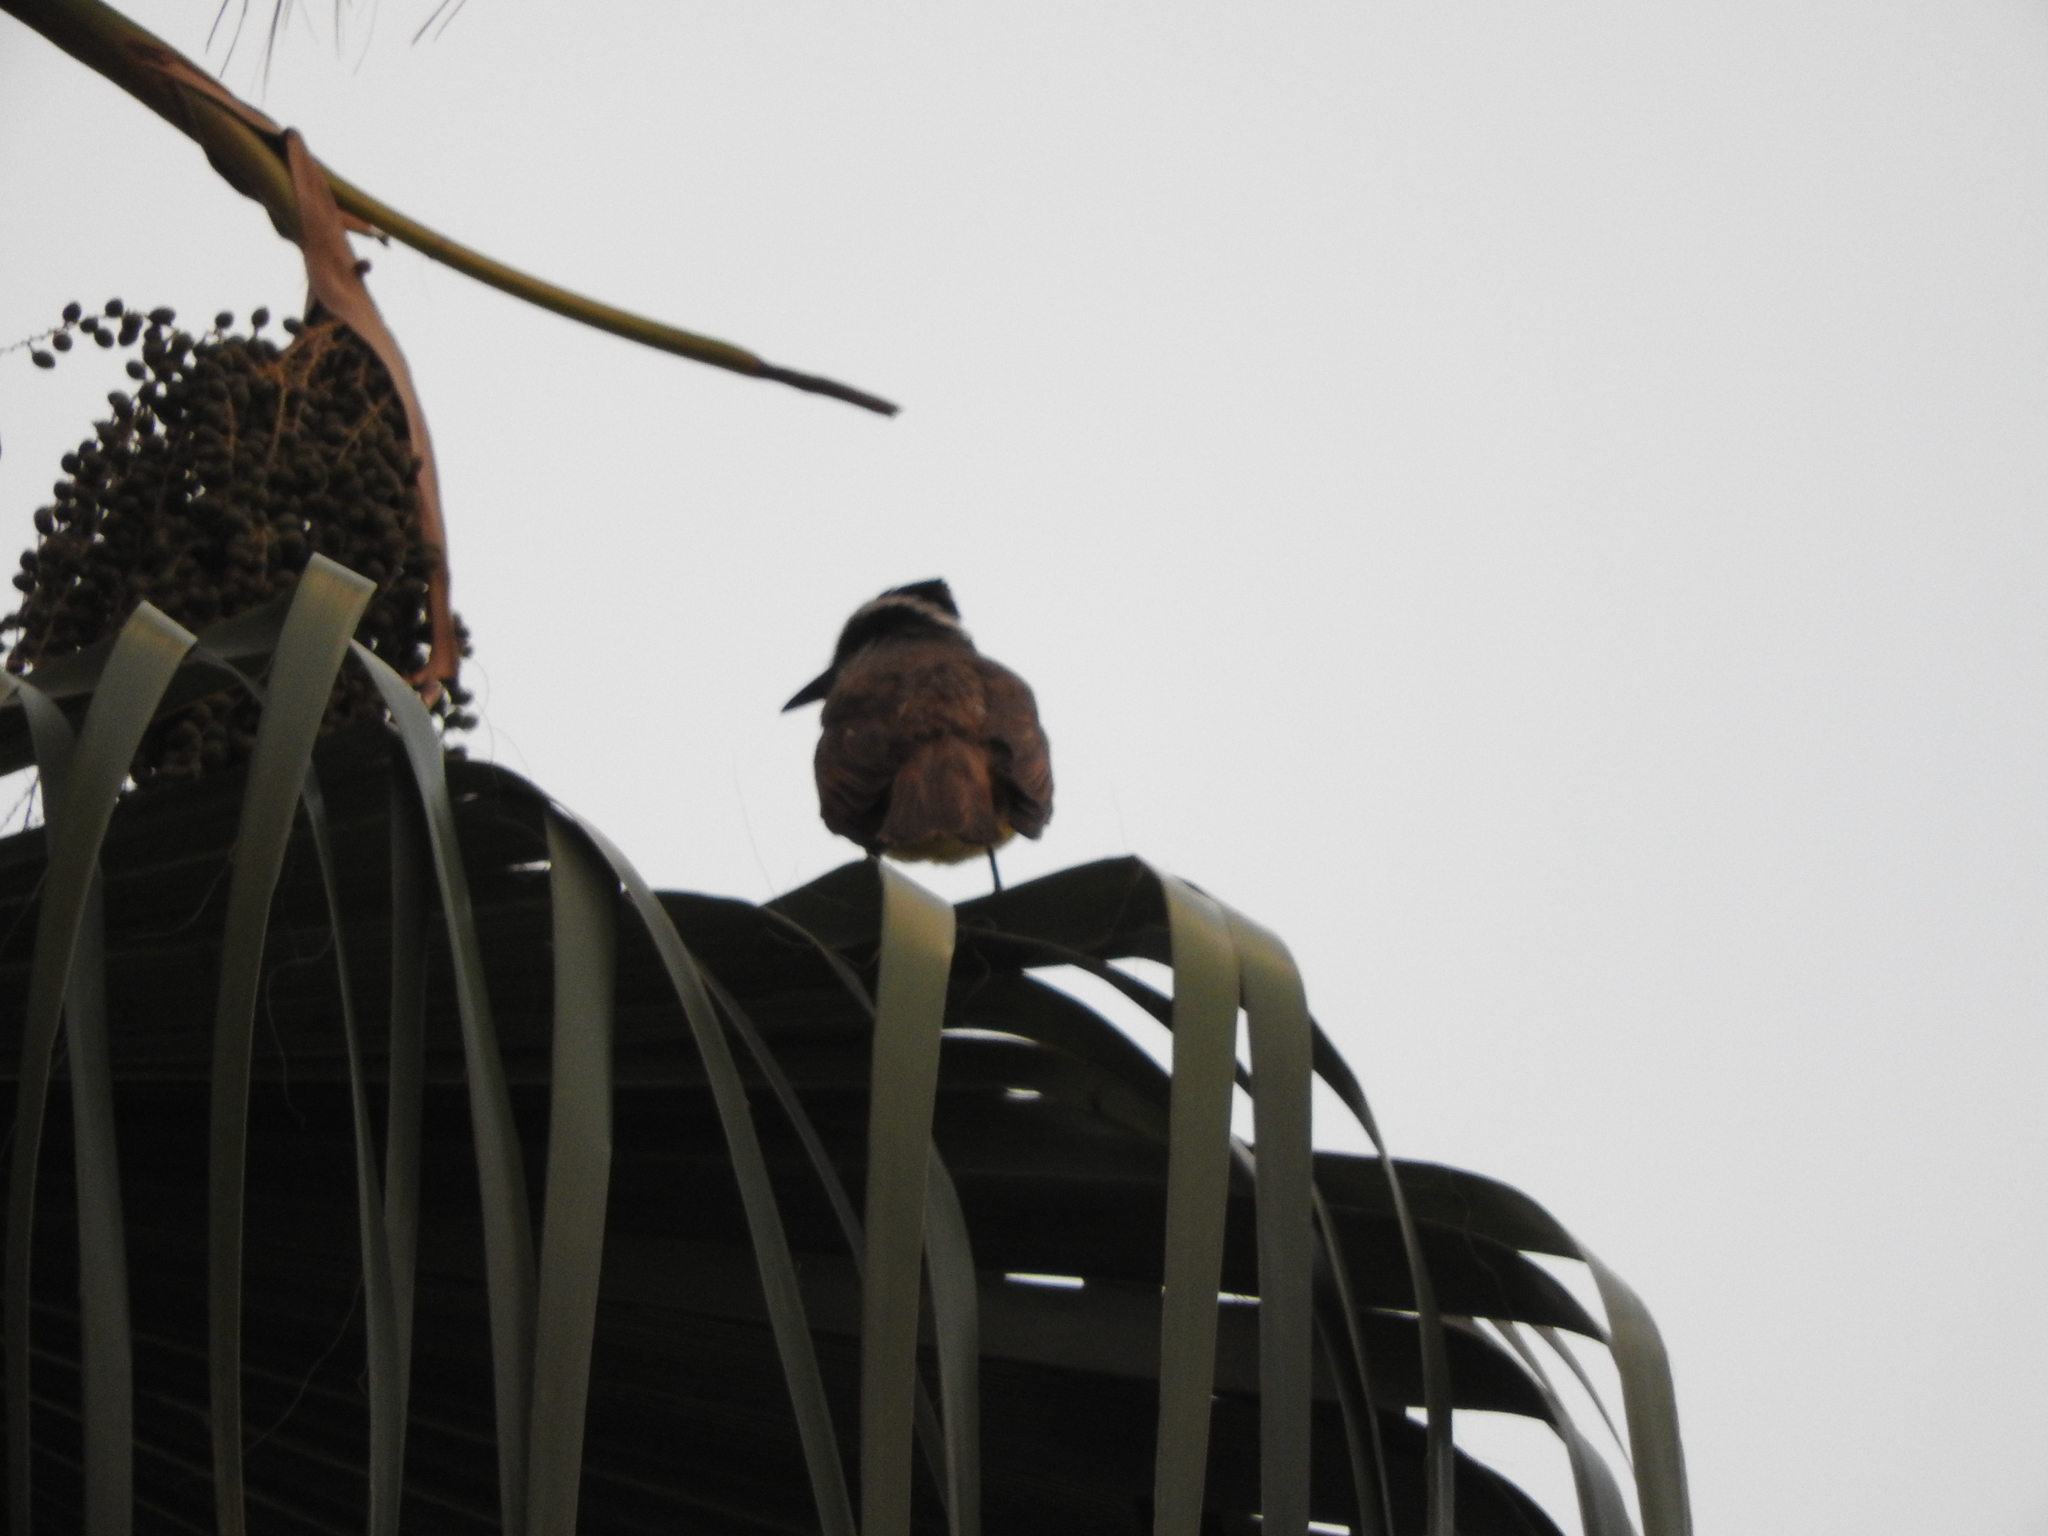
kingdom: Animalia
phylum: Chordata
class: Aves
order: Passeriformes
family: Tyrannidae
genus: Pitangus
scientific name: Pitangus sulphuratus
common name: Great kiskadee
